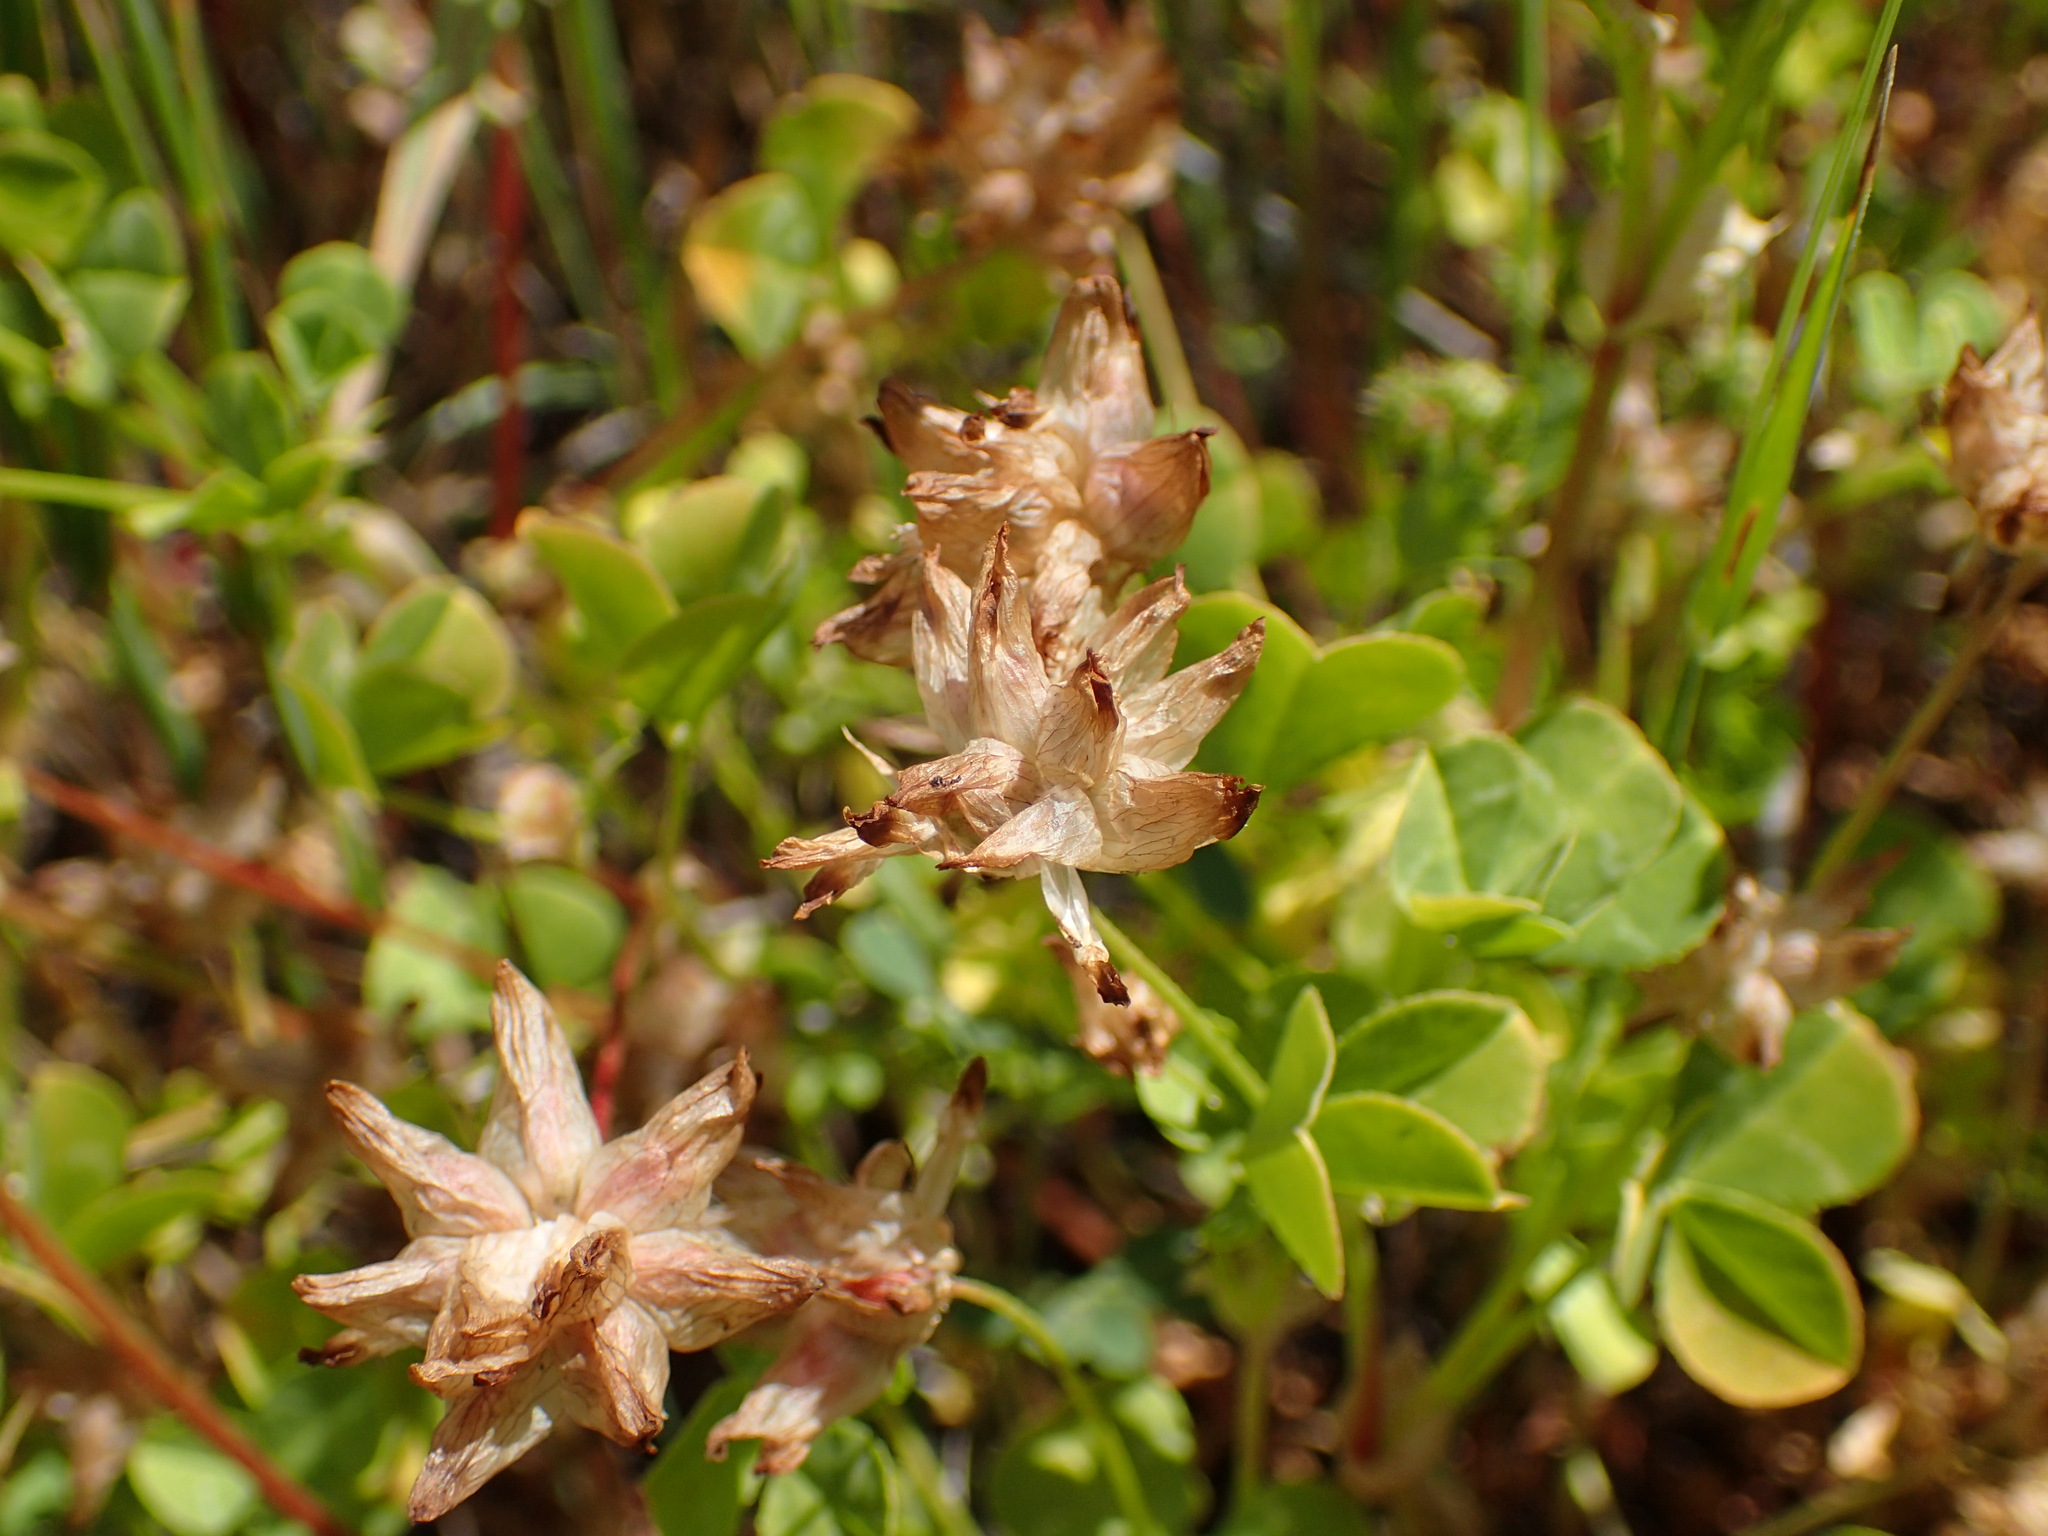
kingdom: Plantae
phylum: Tracheophyta
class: Magnoliopsida
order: Fabales
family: Fabaceae
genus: Trifolium
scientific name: Trifolium fucatum
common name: Puff clover
